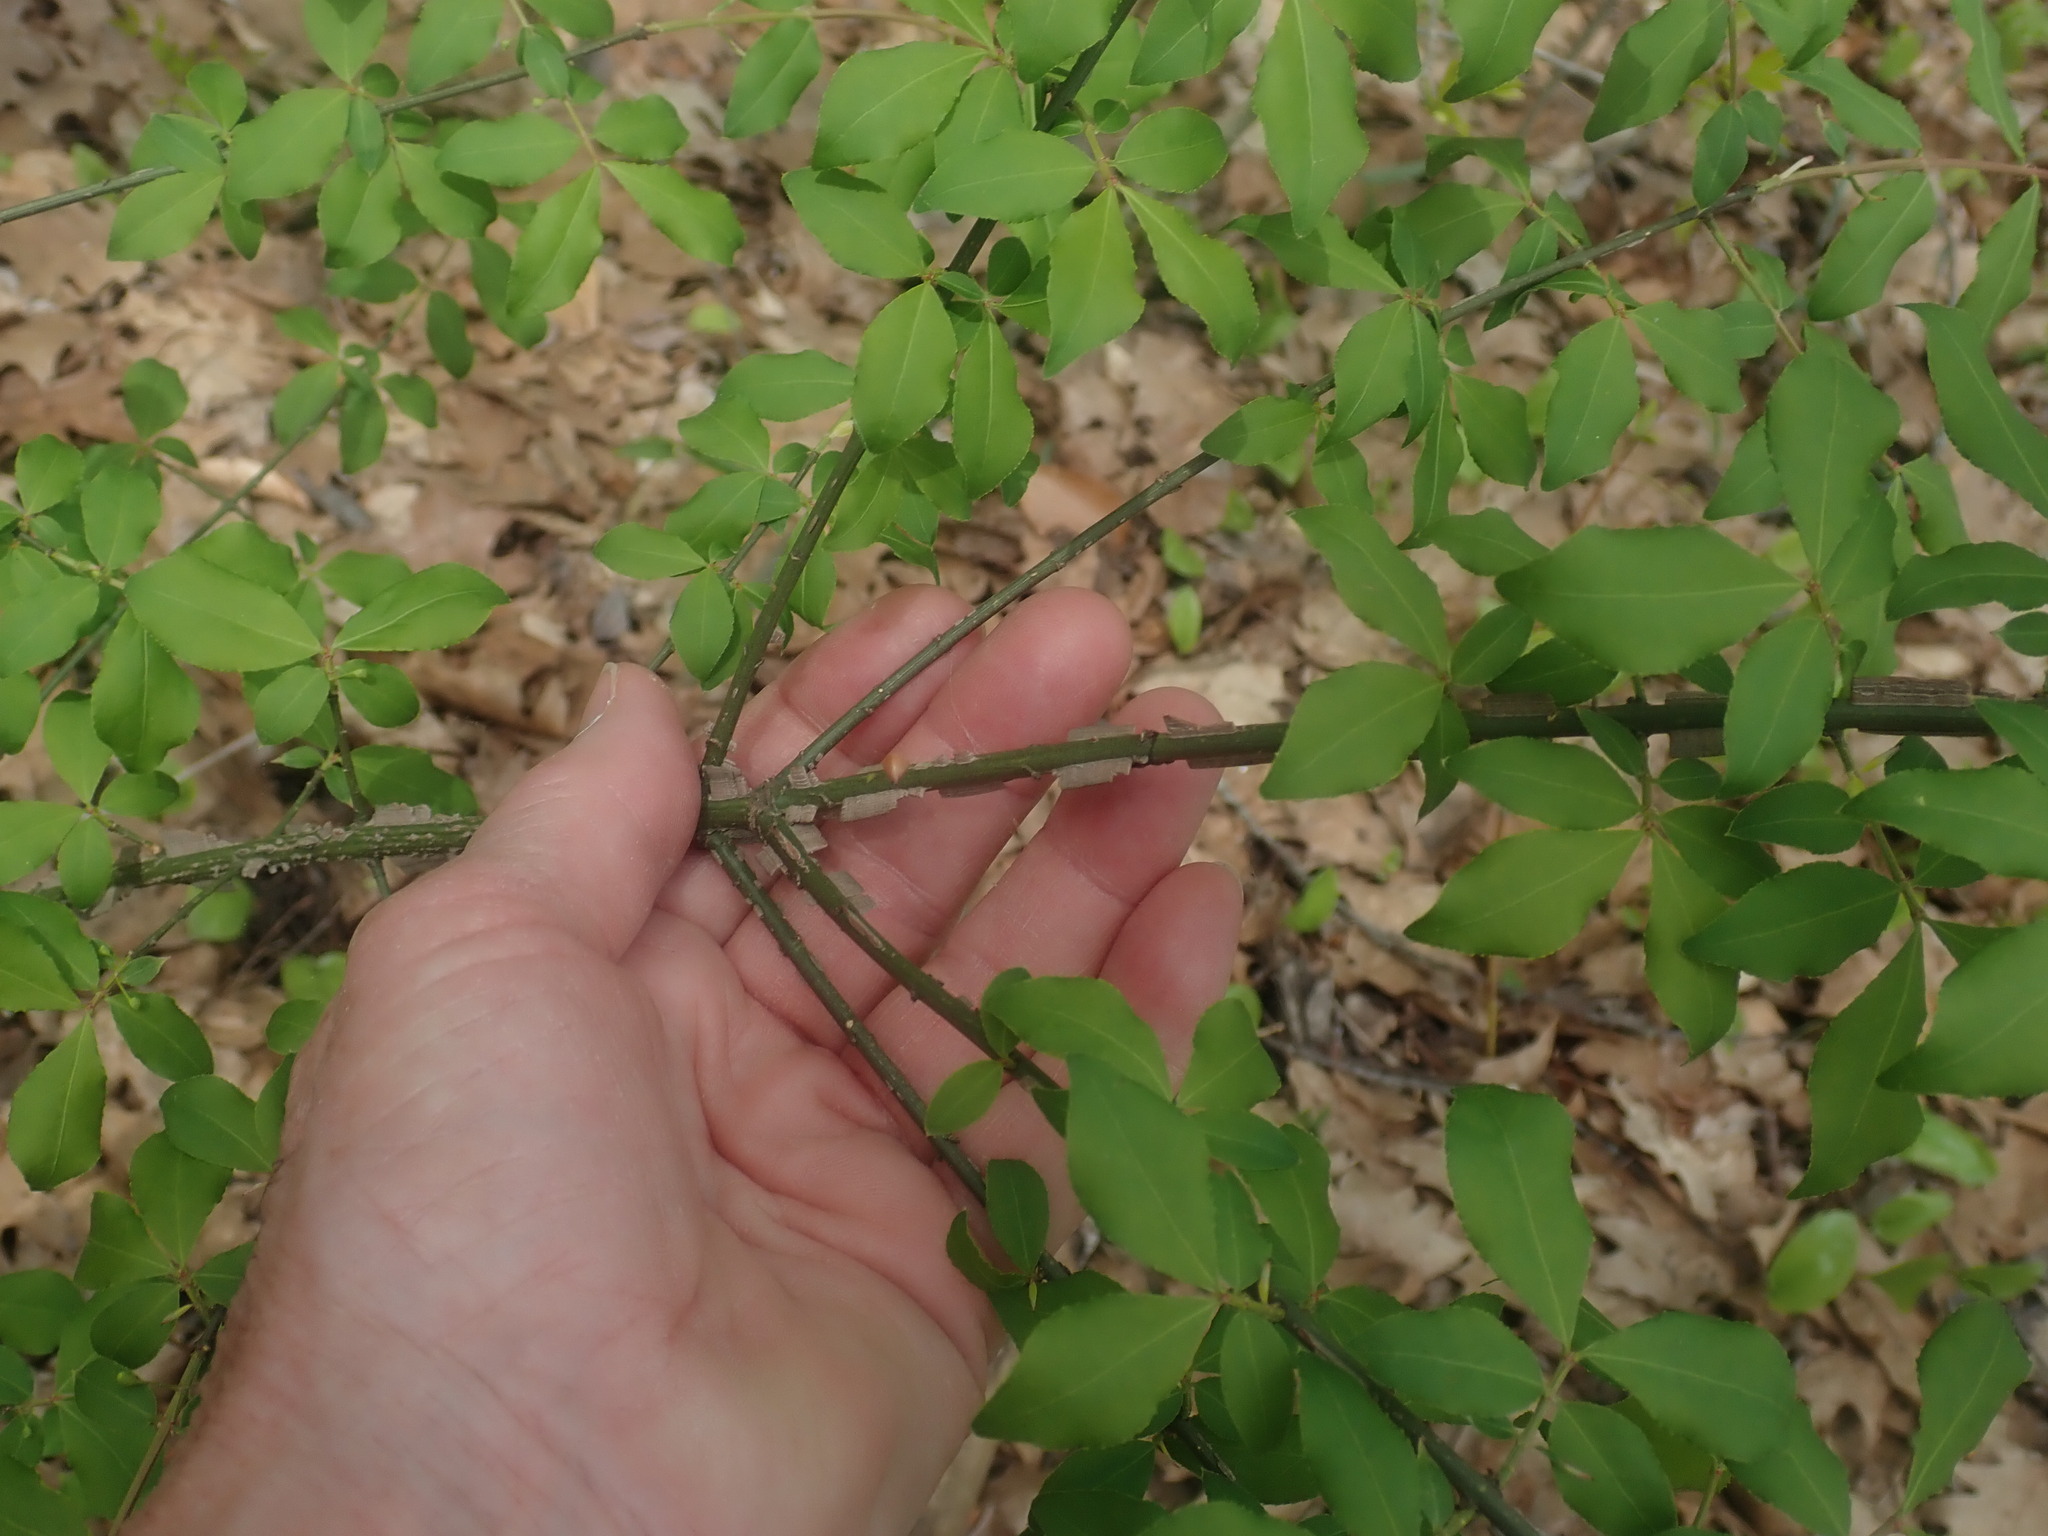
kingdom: Plantae
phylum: Tracheophyta
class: Magnoliopsida
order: Celastrales
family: Celastraceae
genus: Euonymus
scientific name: Euonymus alatus
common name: Winged euonymus
